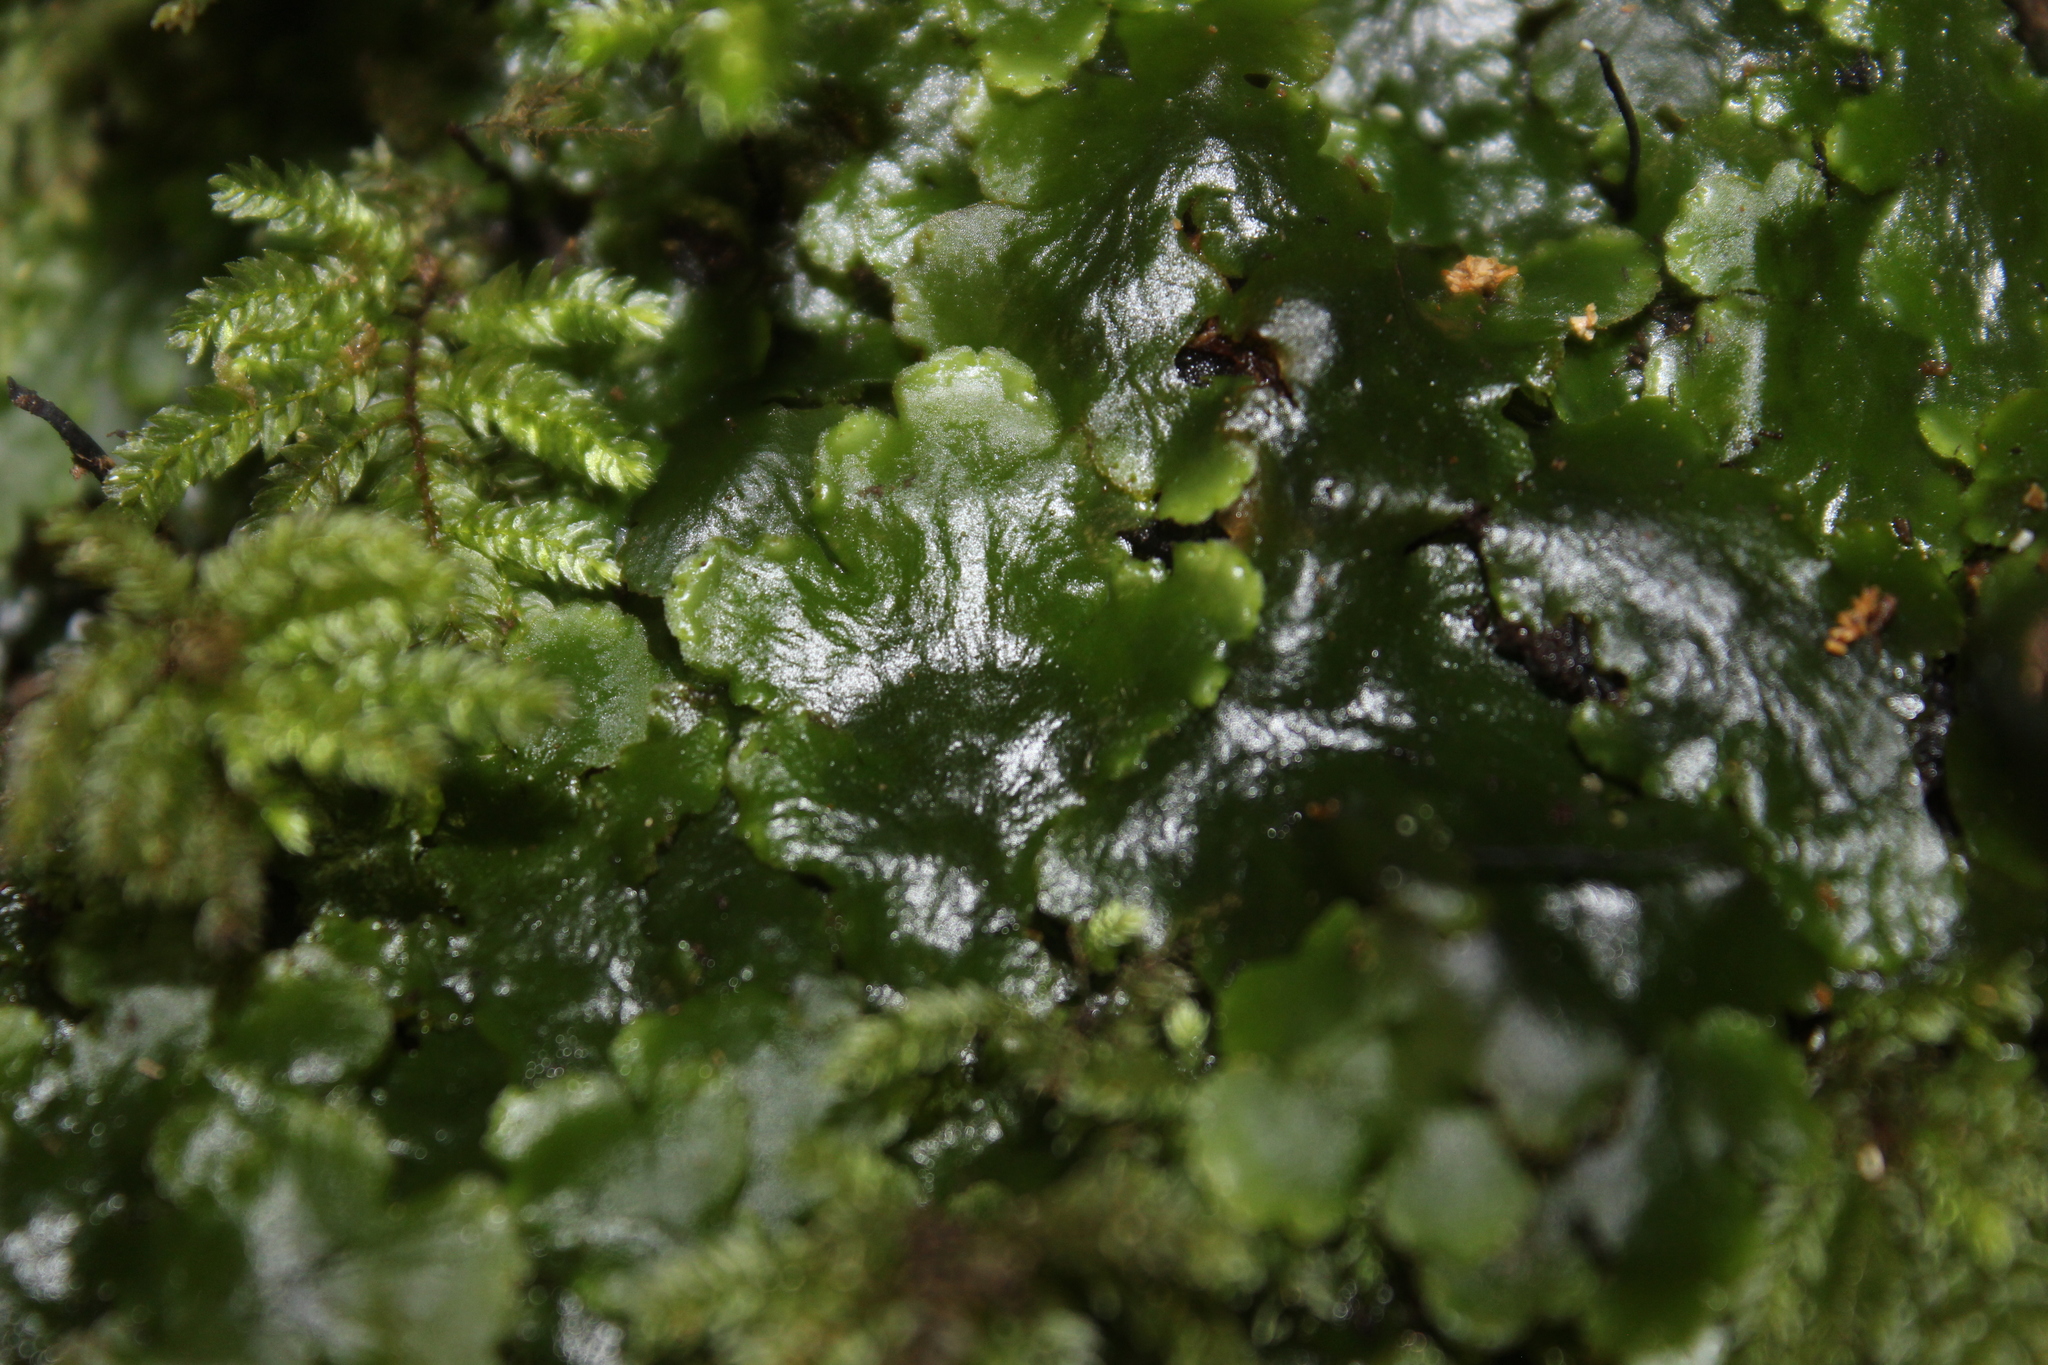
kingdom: Plantae
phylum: Marchantiophyta
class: Jungermanniopsida
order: Metzgeriales
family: Aneuraceae
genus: Lobatiriccardia
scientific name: Lobatiriccardia alterniloba
